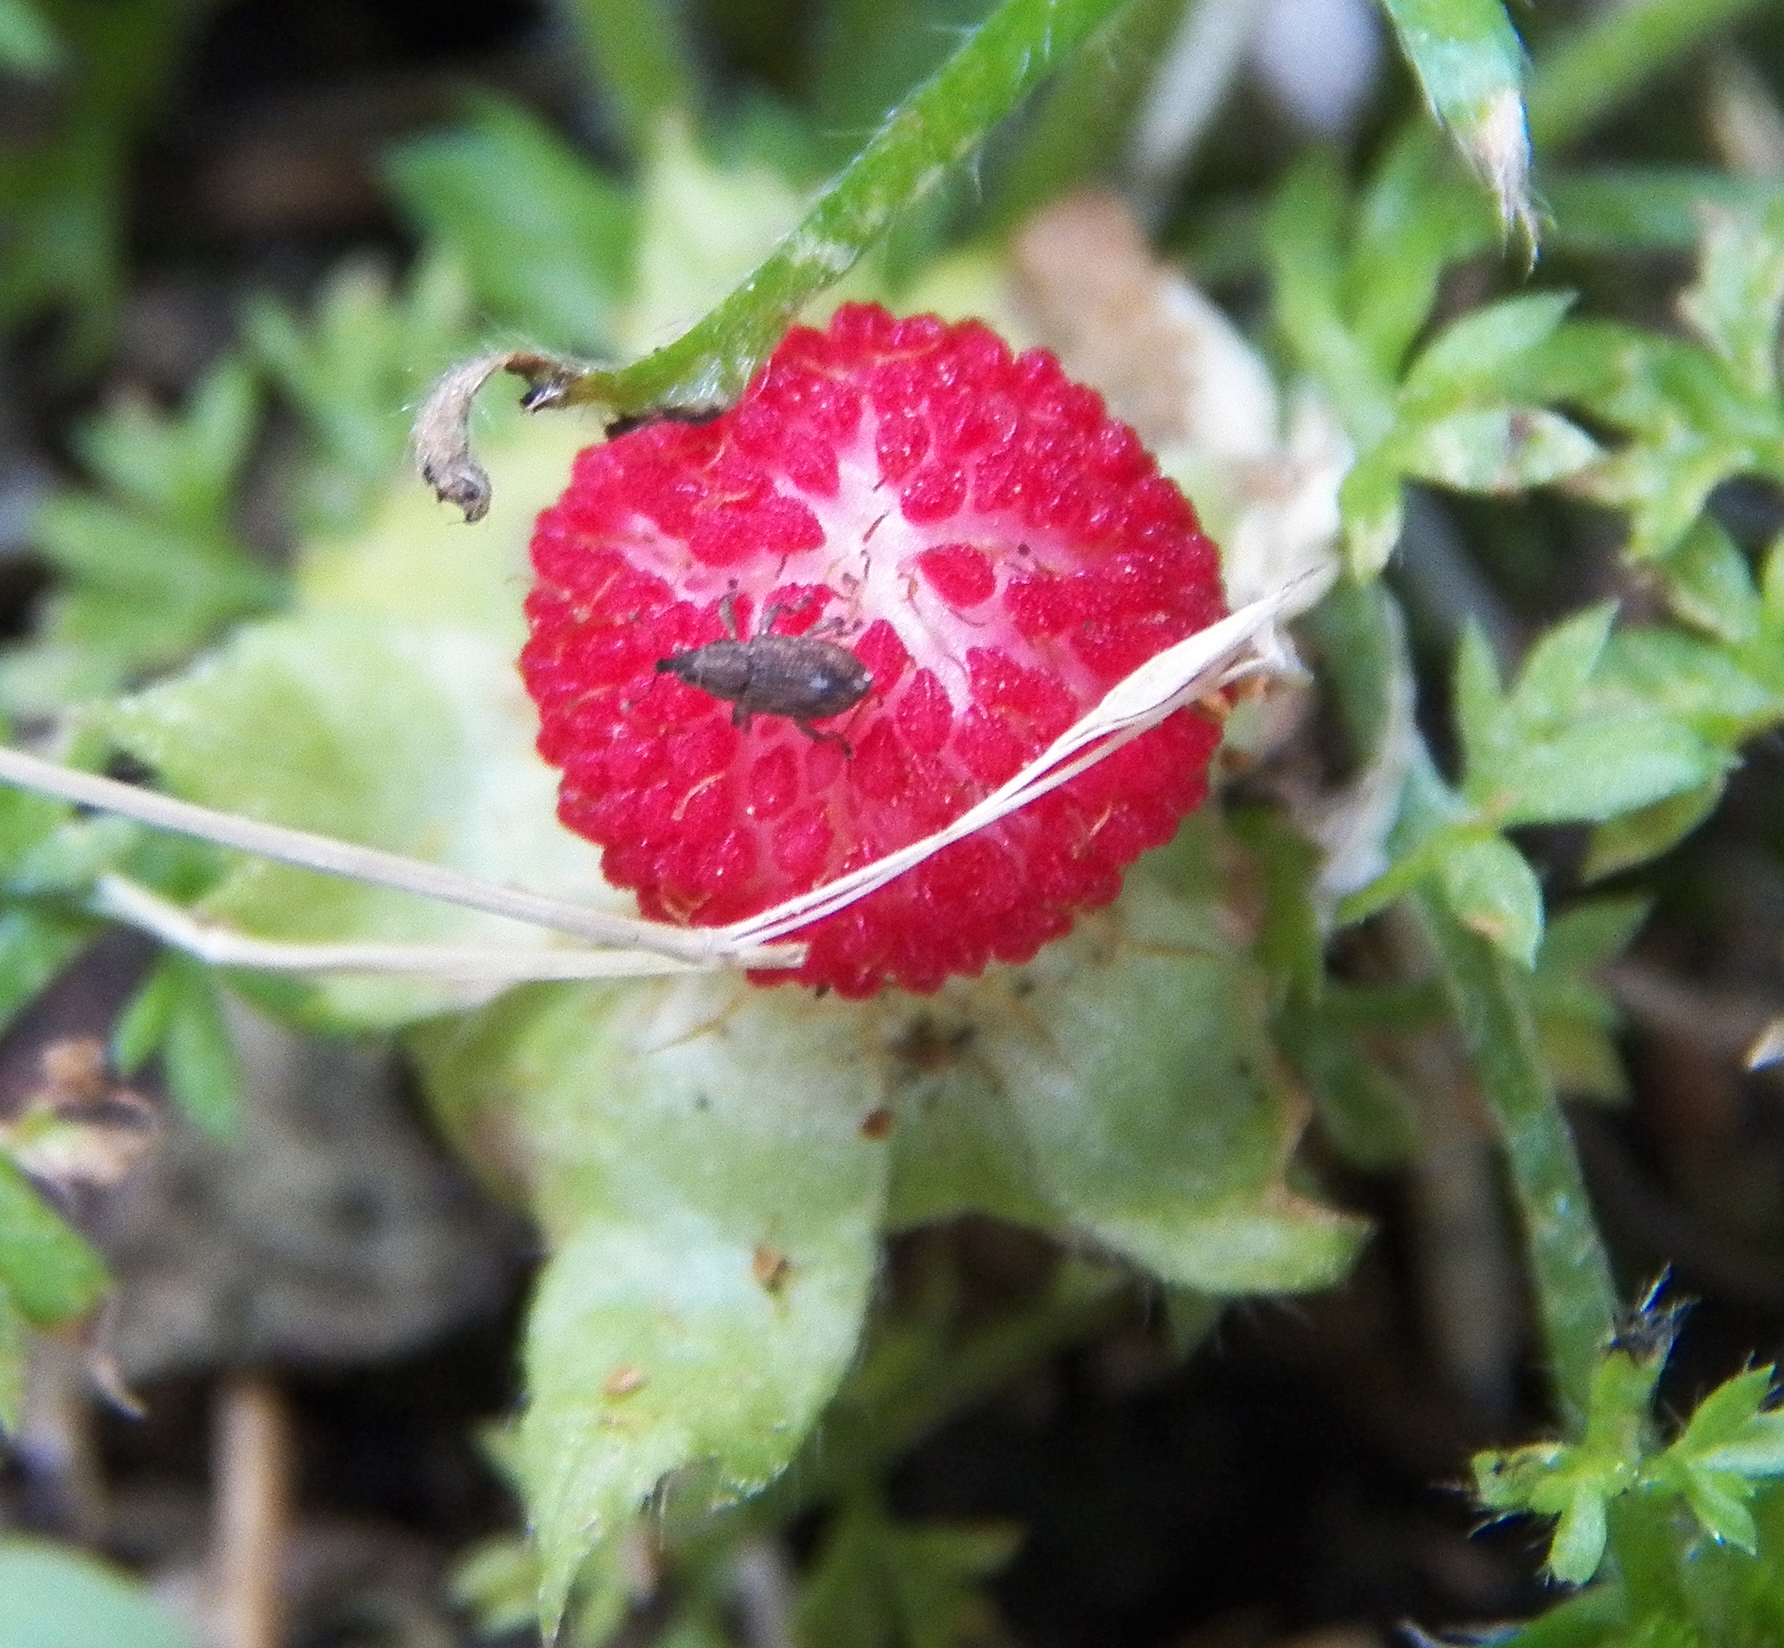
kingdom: Plantae
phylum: Tracheophyta
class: Magnoliopsida
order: Rosales
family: Rosaceae
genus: Potentilla
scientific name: Potentilla indica
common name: Yellow-flowered strawberry
